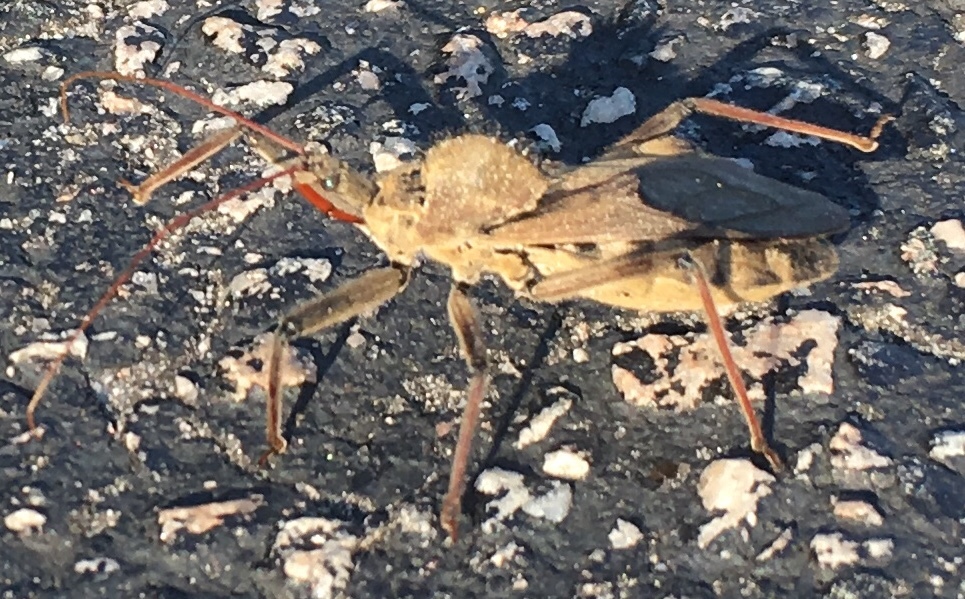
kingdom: Animalia
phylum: Arthropoda
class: Insecta
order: Hemiptera
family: Reduviidae
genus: Arilus
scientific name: Arilus cristatus
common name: North american wheel bug
